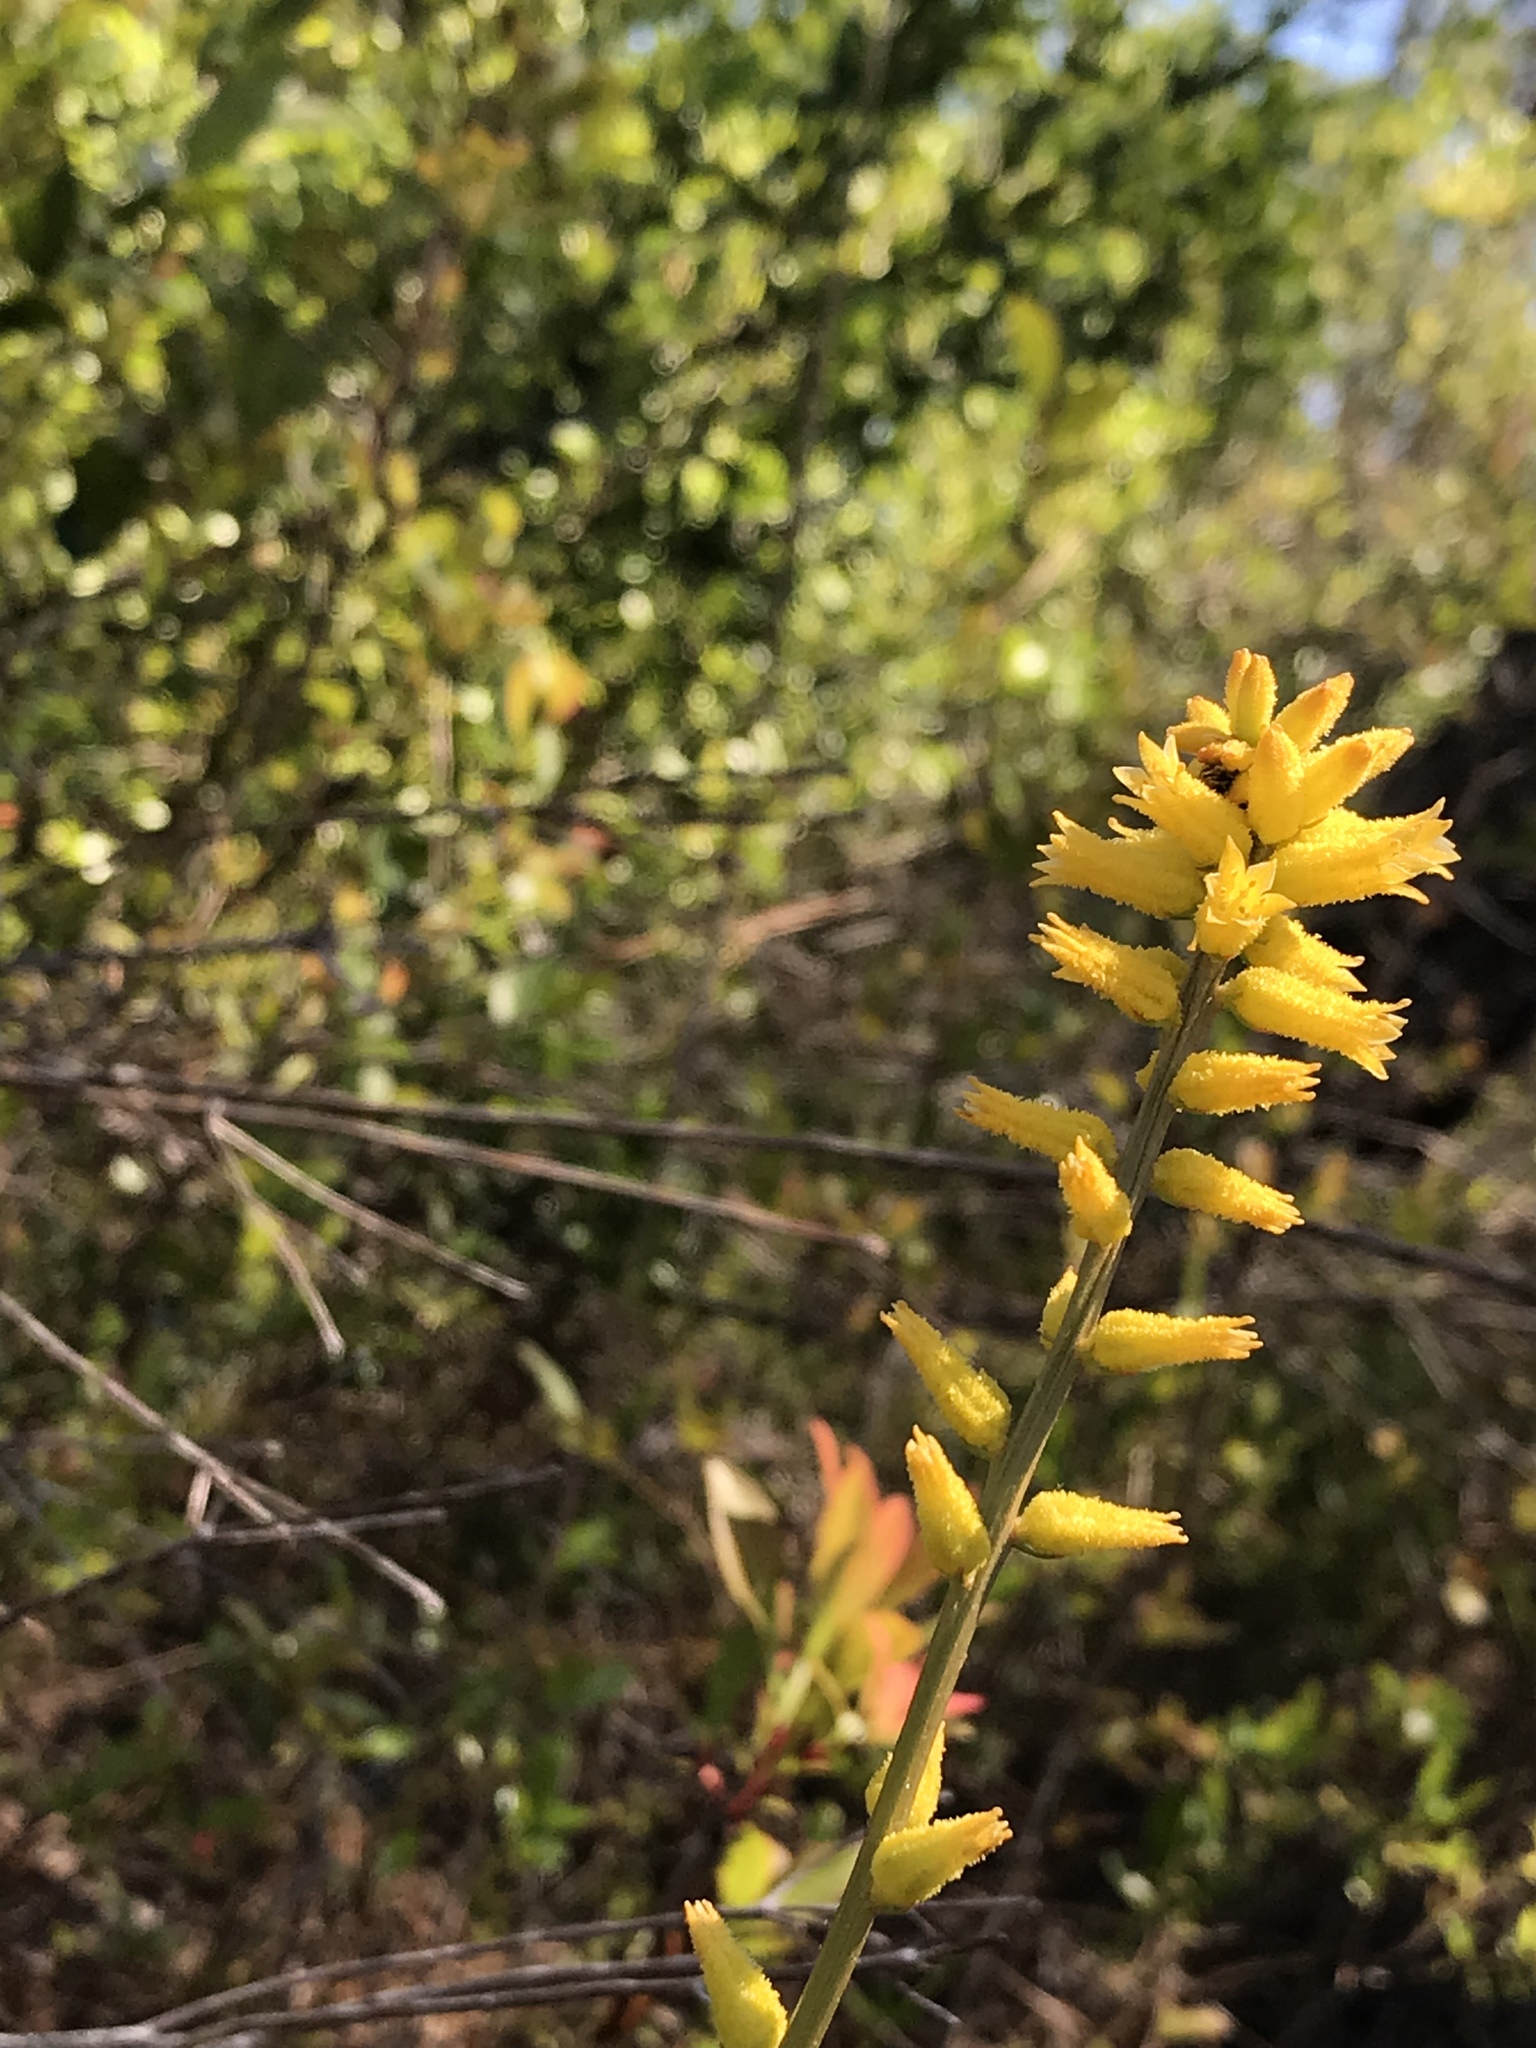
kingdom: Plantae
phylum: Tracheophyta
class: Liliopsida
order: Dioscoreales
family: Nartheciaceae
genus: Aletris
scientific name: Aletris lutea
